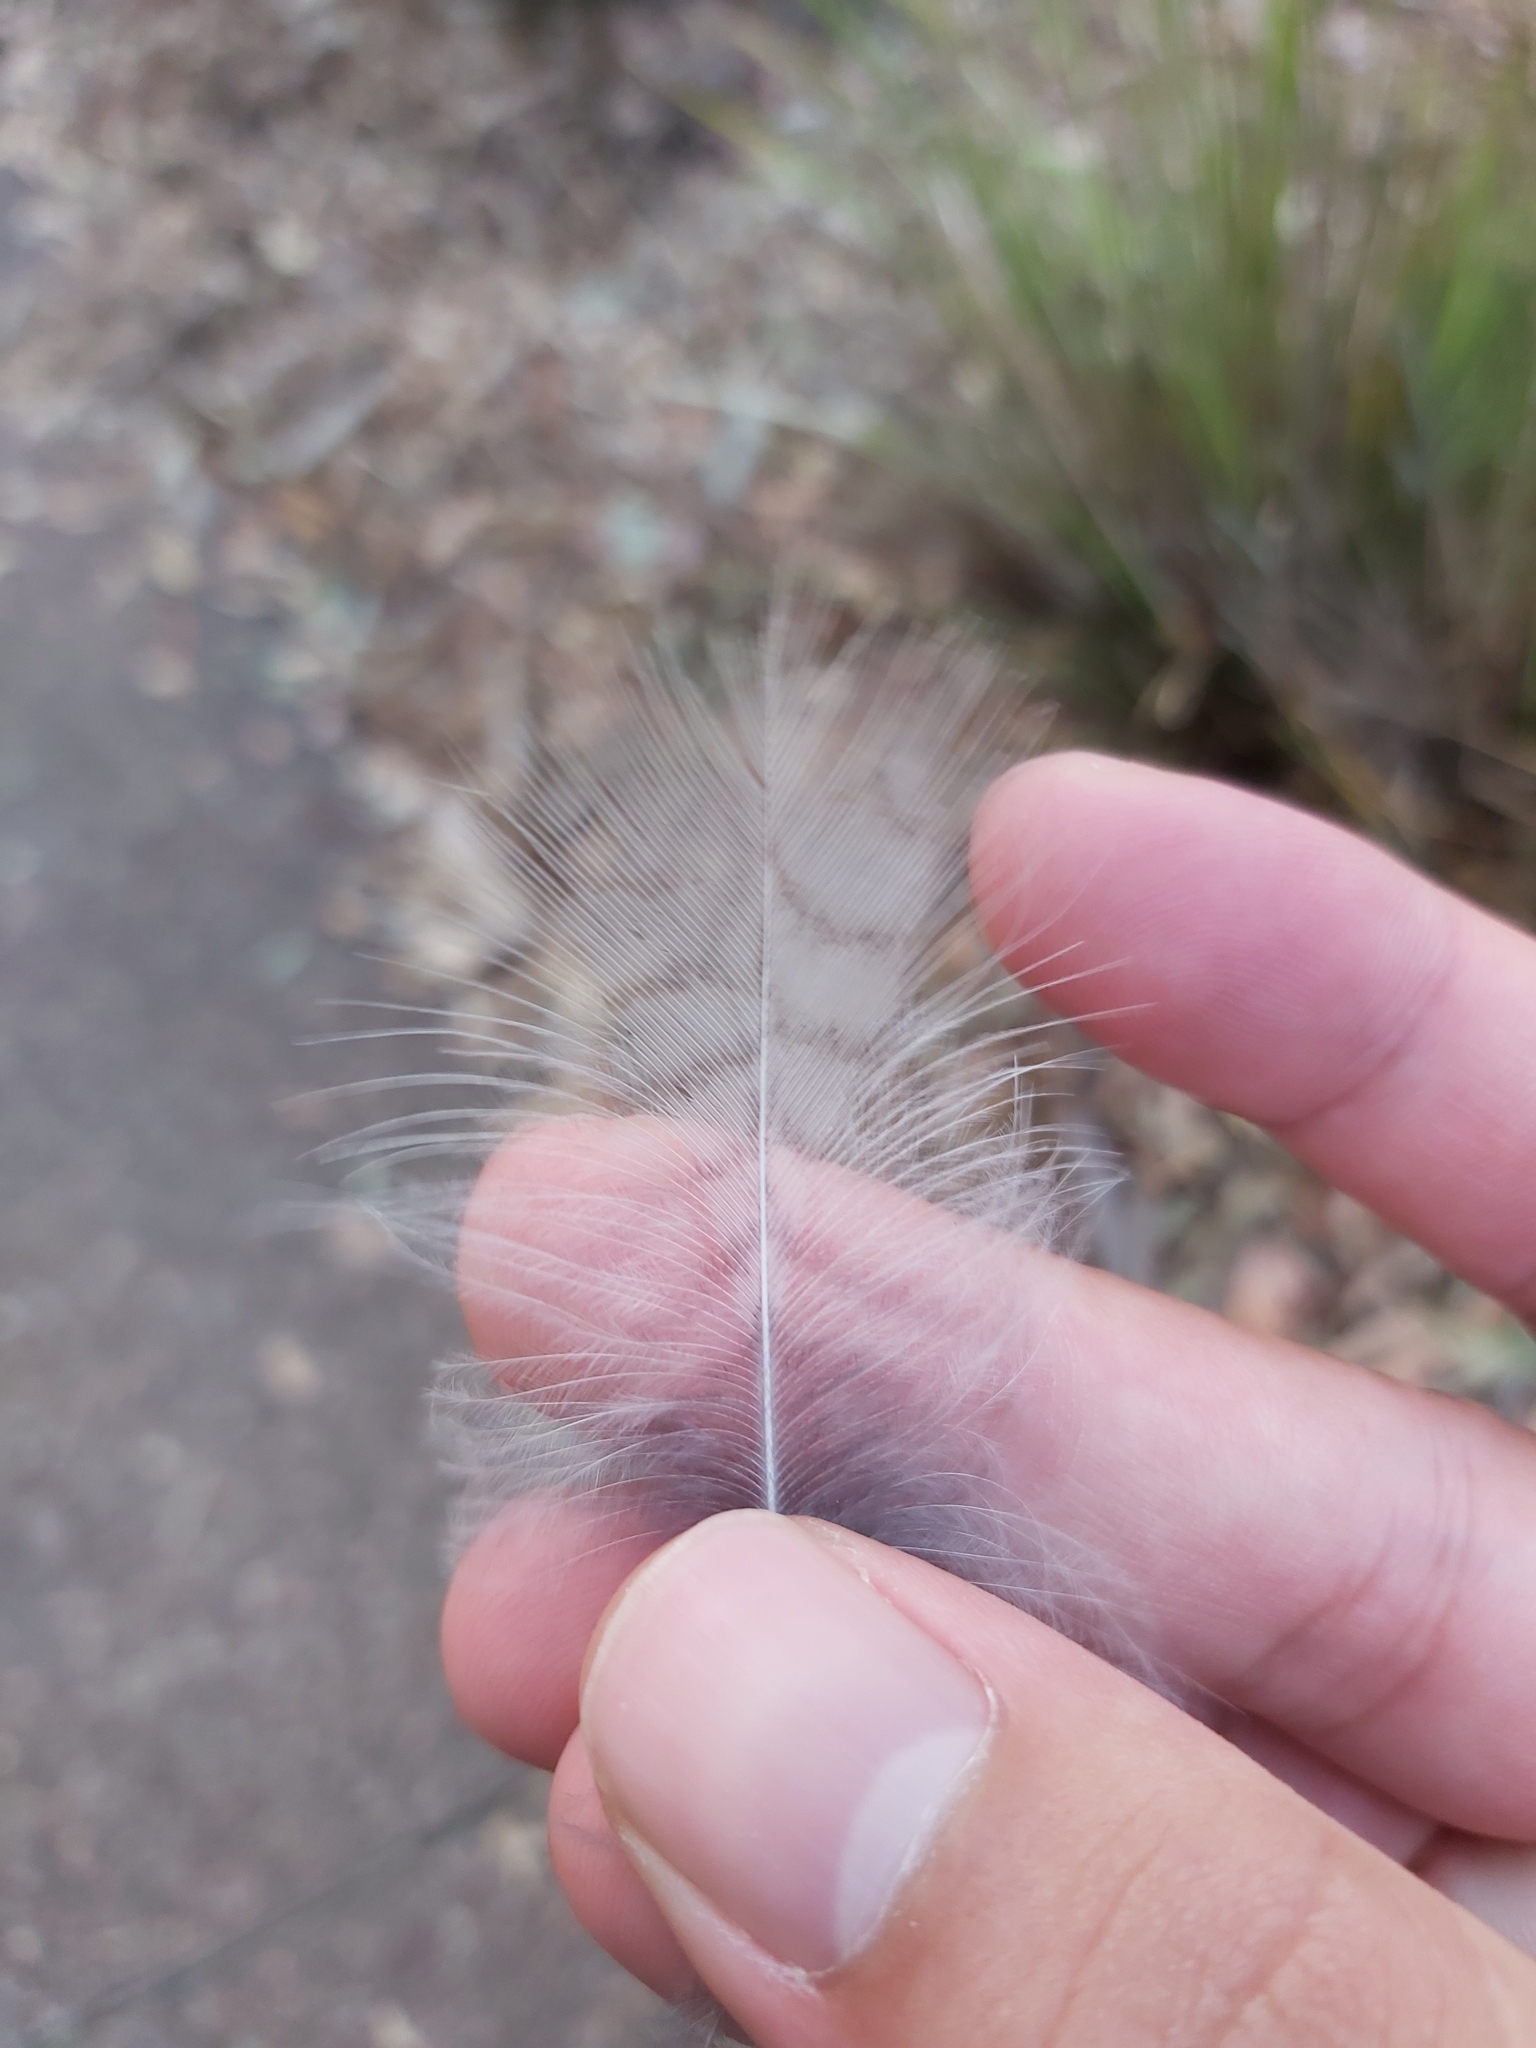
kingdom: Animalia
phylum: Chordata
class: Aves
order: Coraciiformes
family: Alcedinidae
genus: Dacelo
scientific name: Dacelo novaeguineae
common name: Laughing kookaburra
